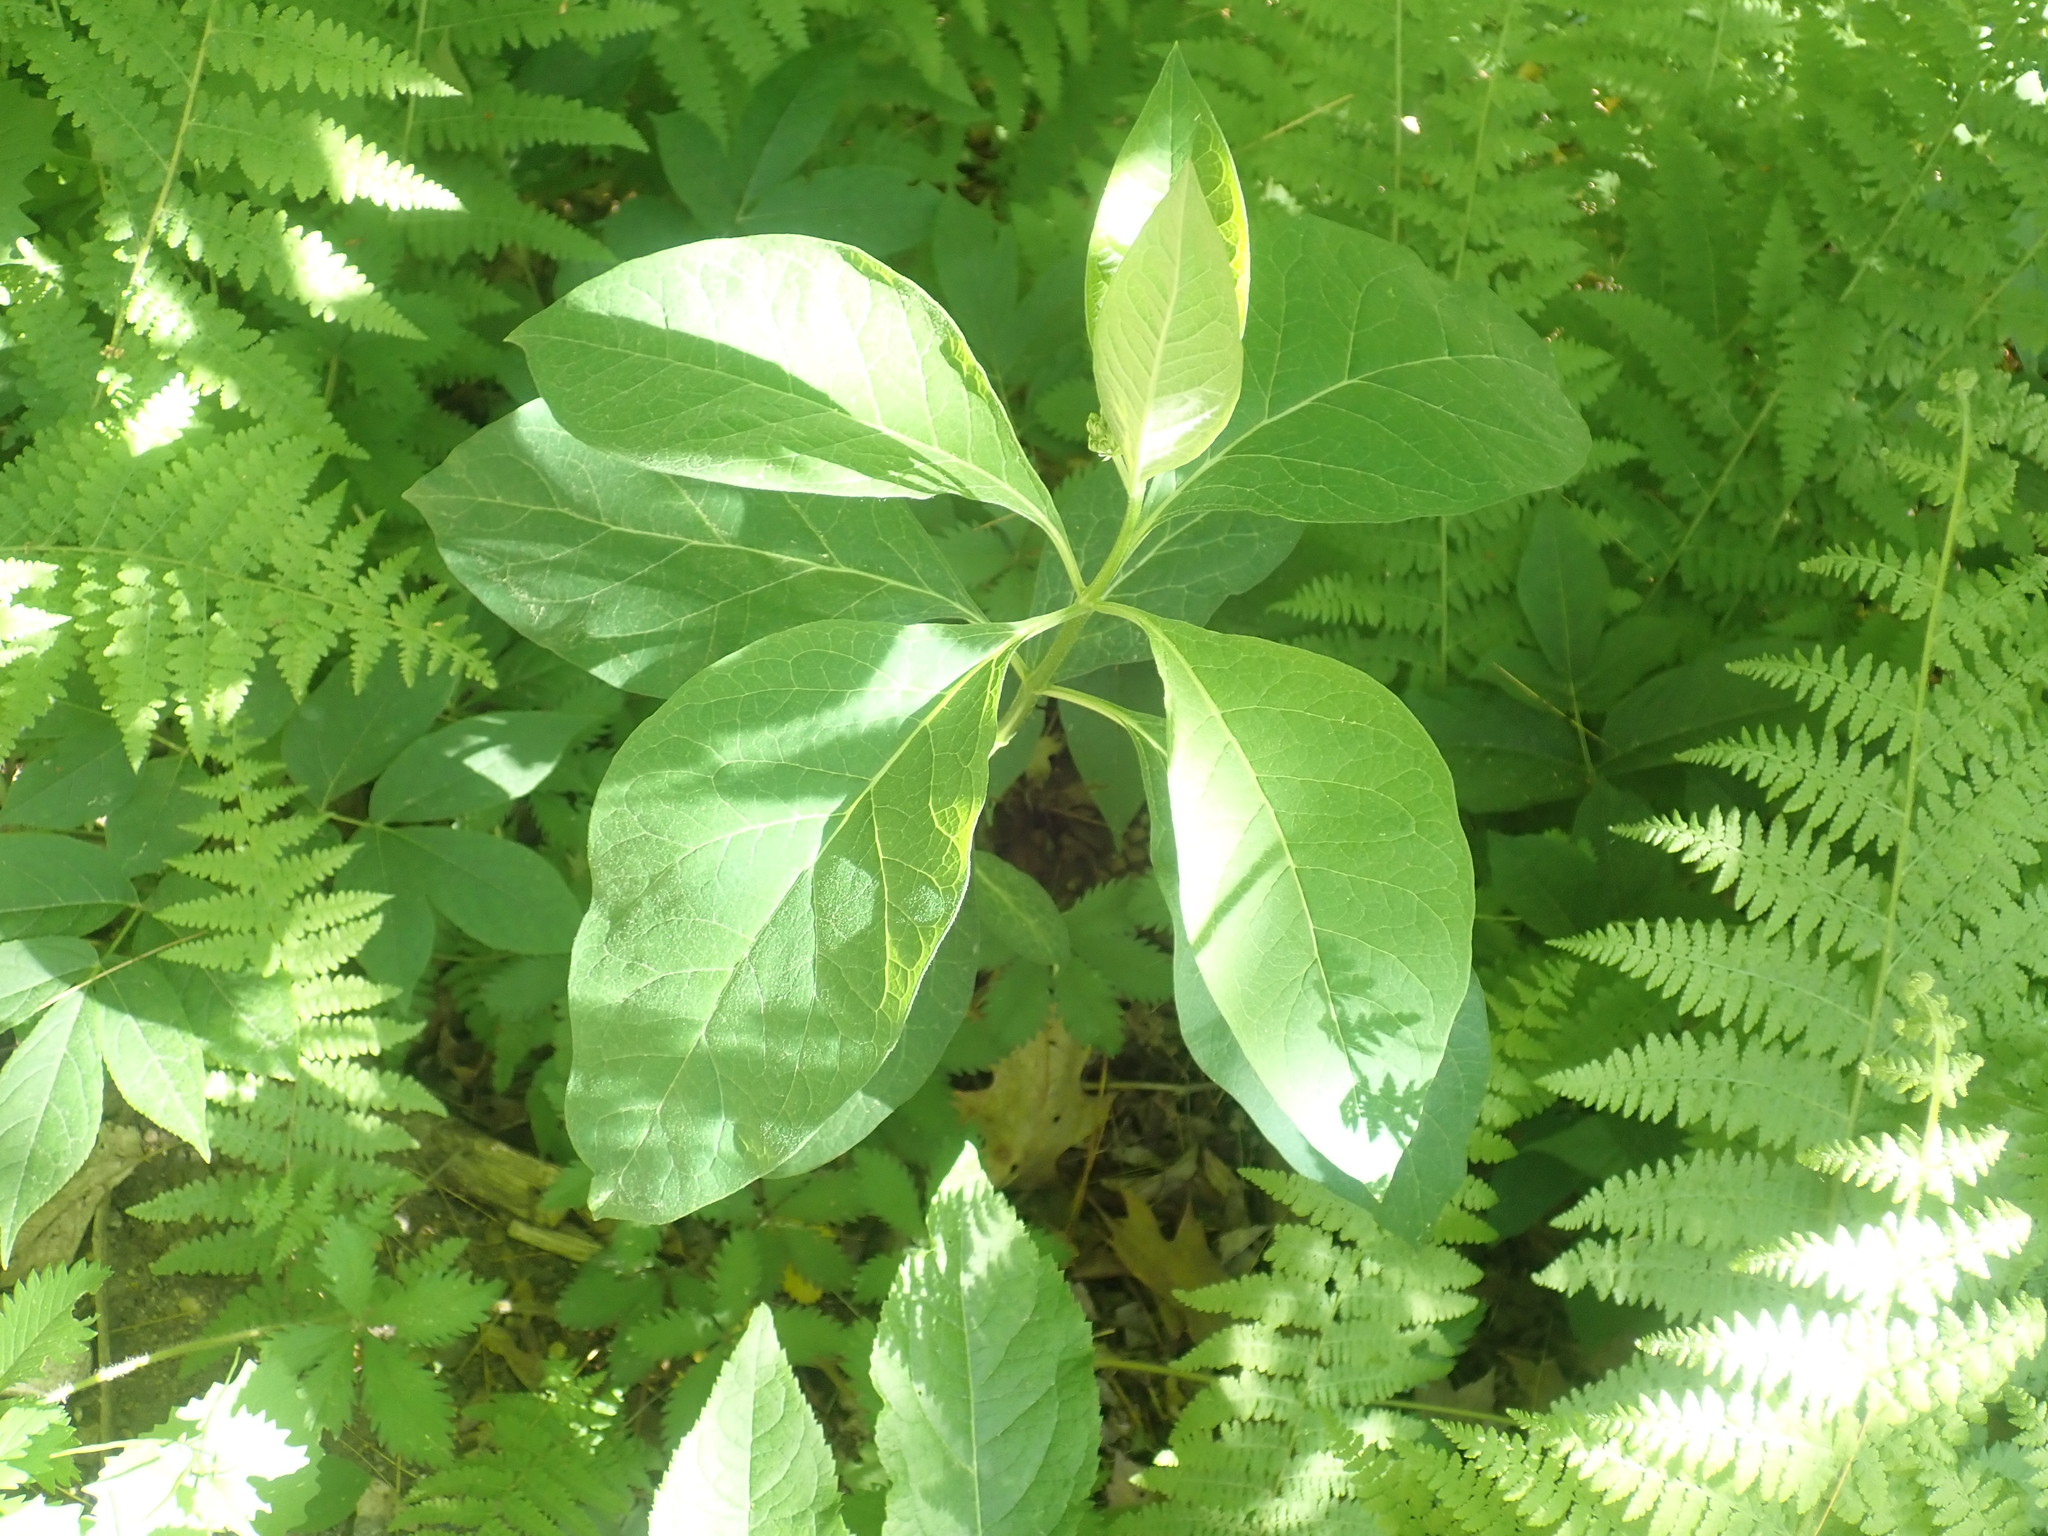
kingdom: Plantae
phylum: Tracheophyta
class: Magnoliopsida
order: Gentianales
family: Apocynaceae
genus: Asclepias
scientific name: Asclepias quadrifolia
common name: Whorled milkweed
